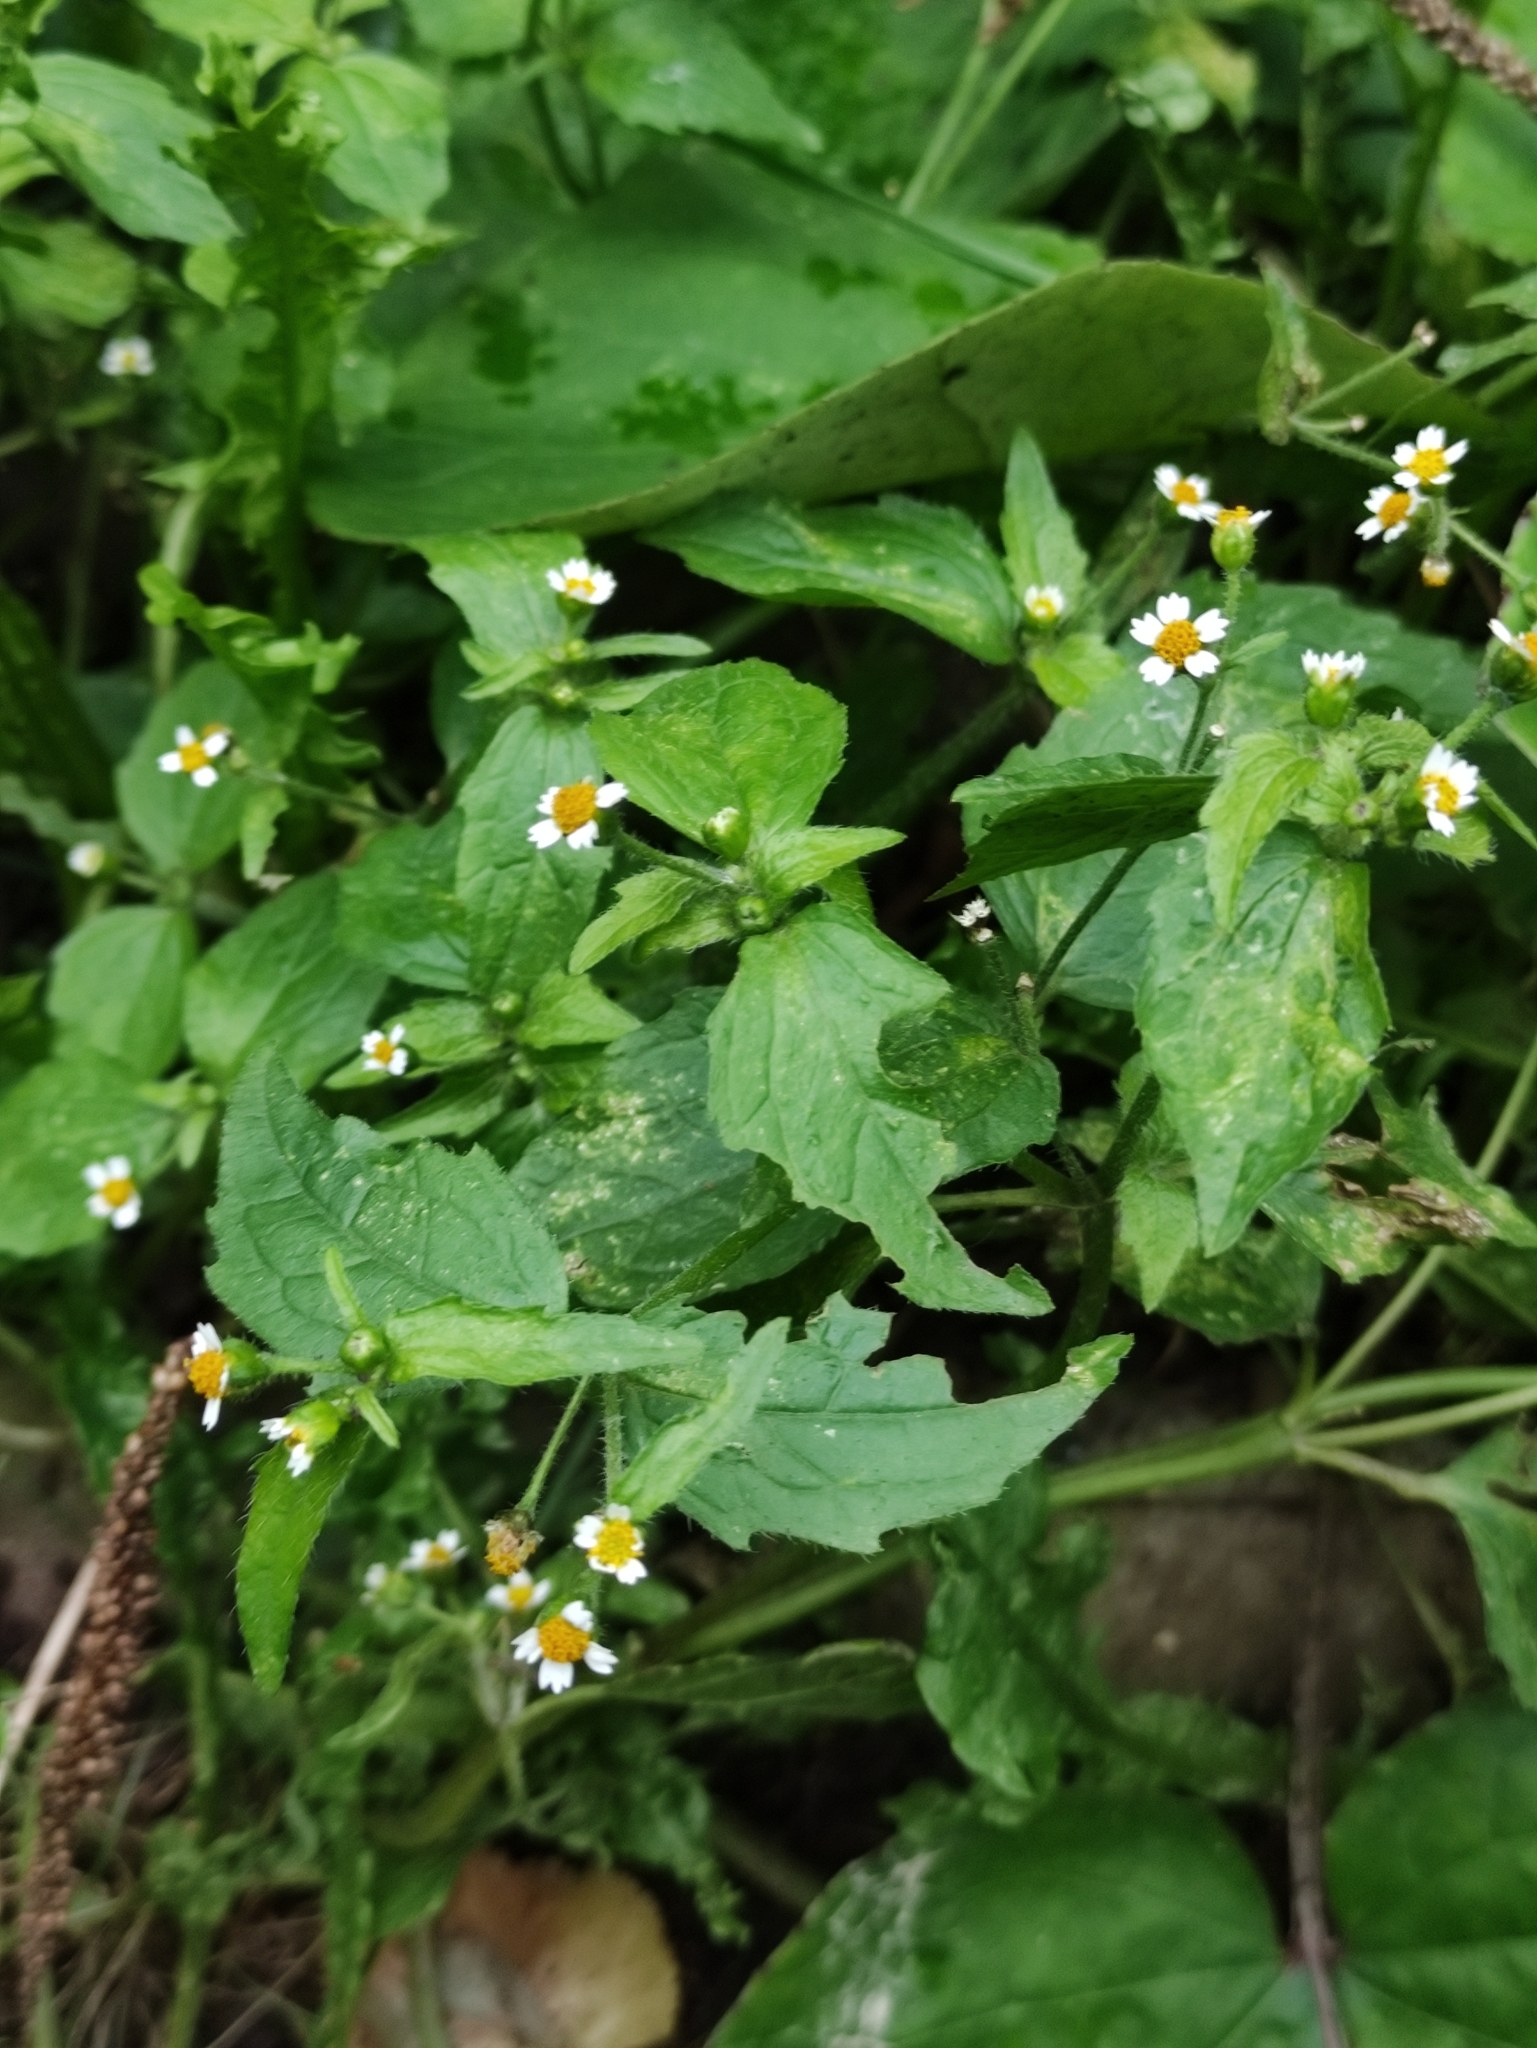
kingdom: Plantae
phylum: Tracheophyta
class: Magnoliopsida
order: Asterales
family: Asteraceae
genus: Galinsoga
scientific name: Galinsoga quadriradiata
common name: Shaggy soldier
